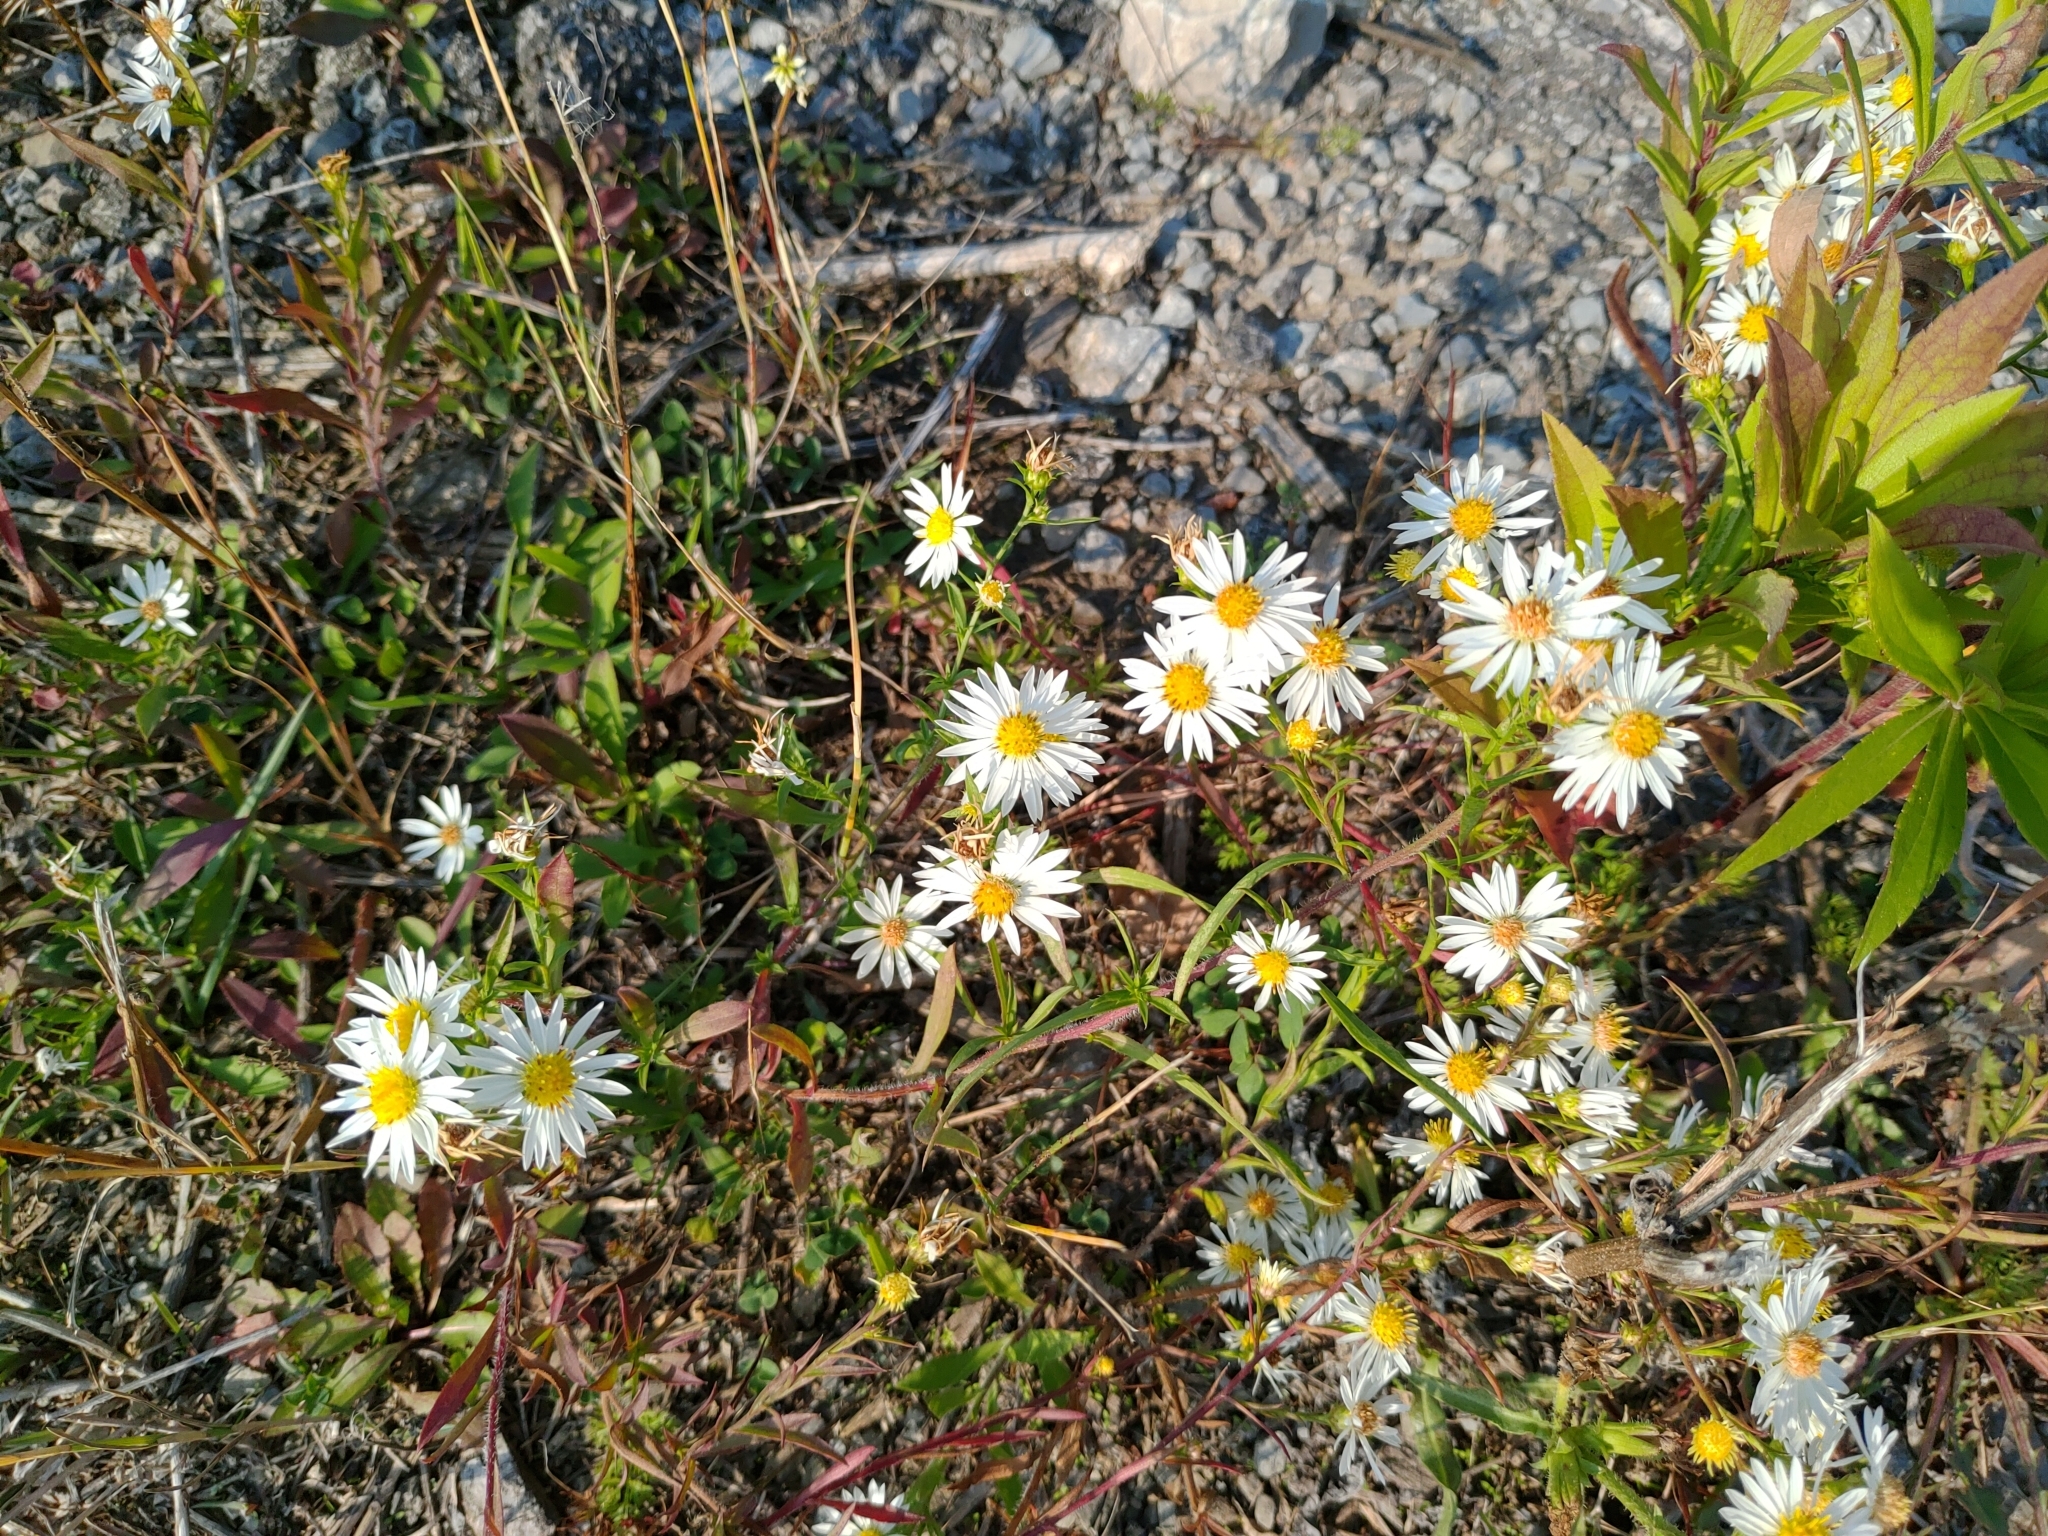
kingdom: Plantae
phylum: Tracheophyta
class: Magnoliopsida
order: Asterales
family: Asteraceae
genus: Symphyotrichum
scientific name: Symphyotrichum pilosum
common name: Awl aster
